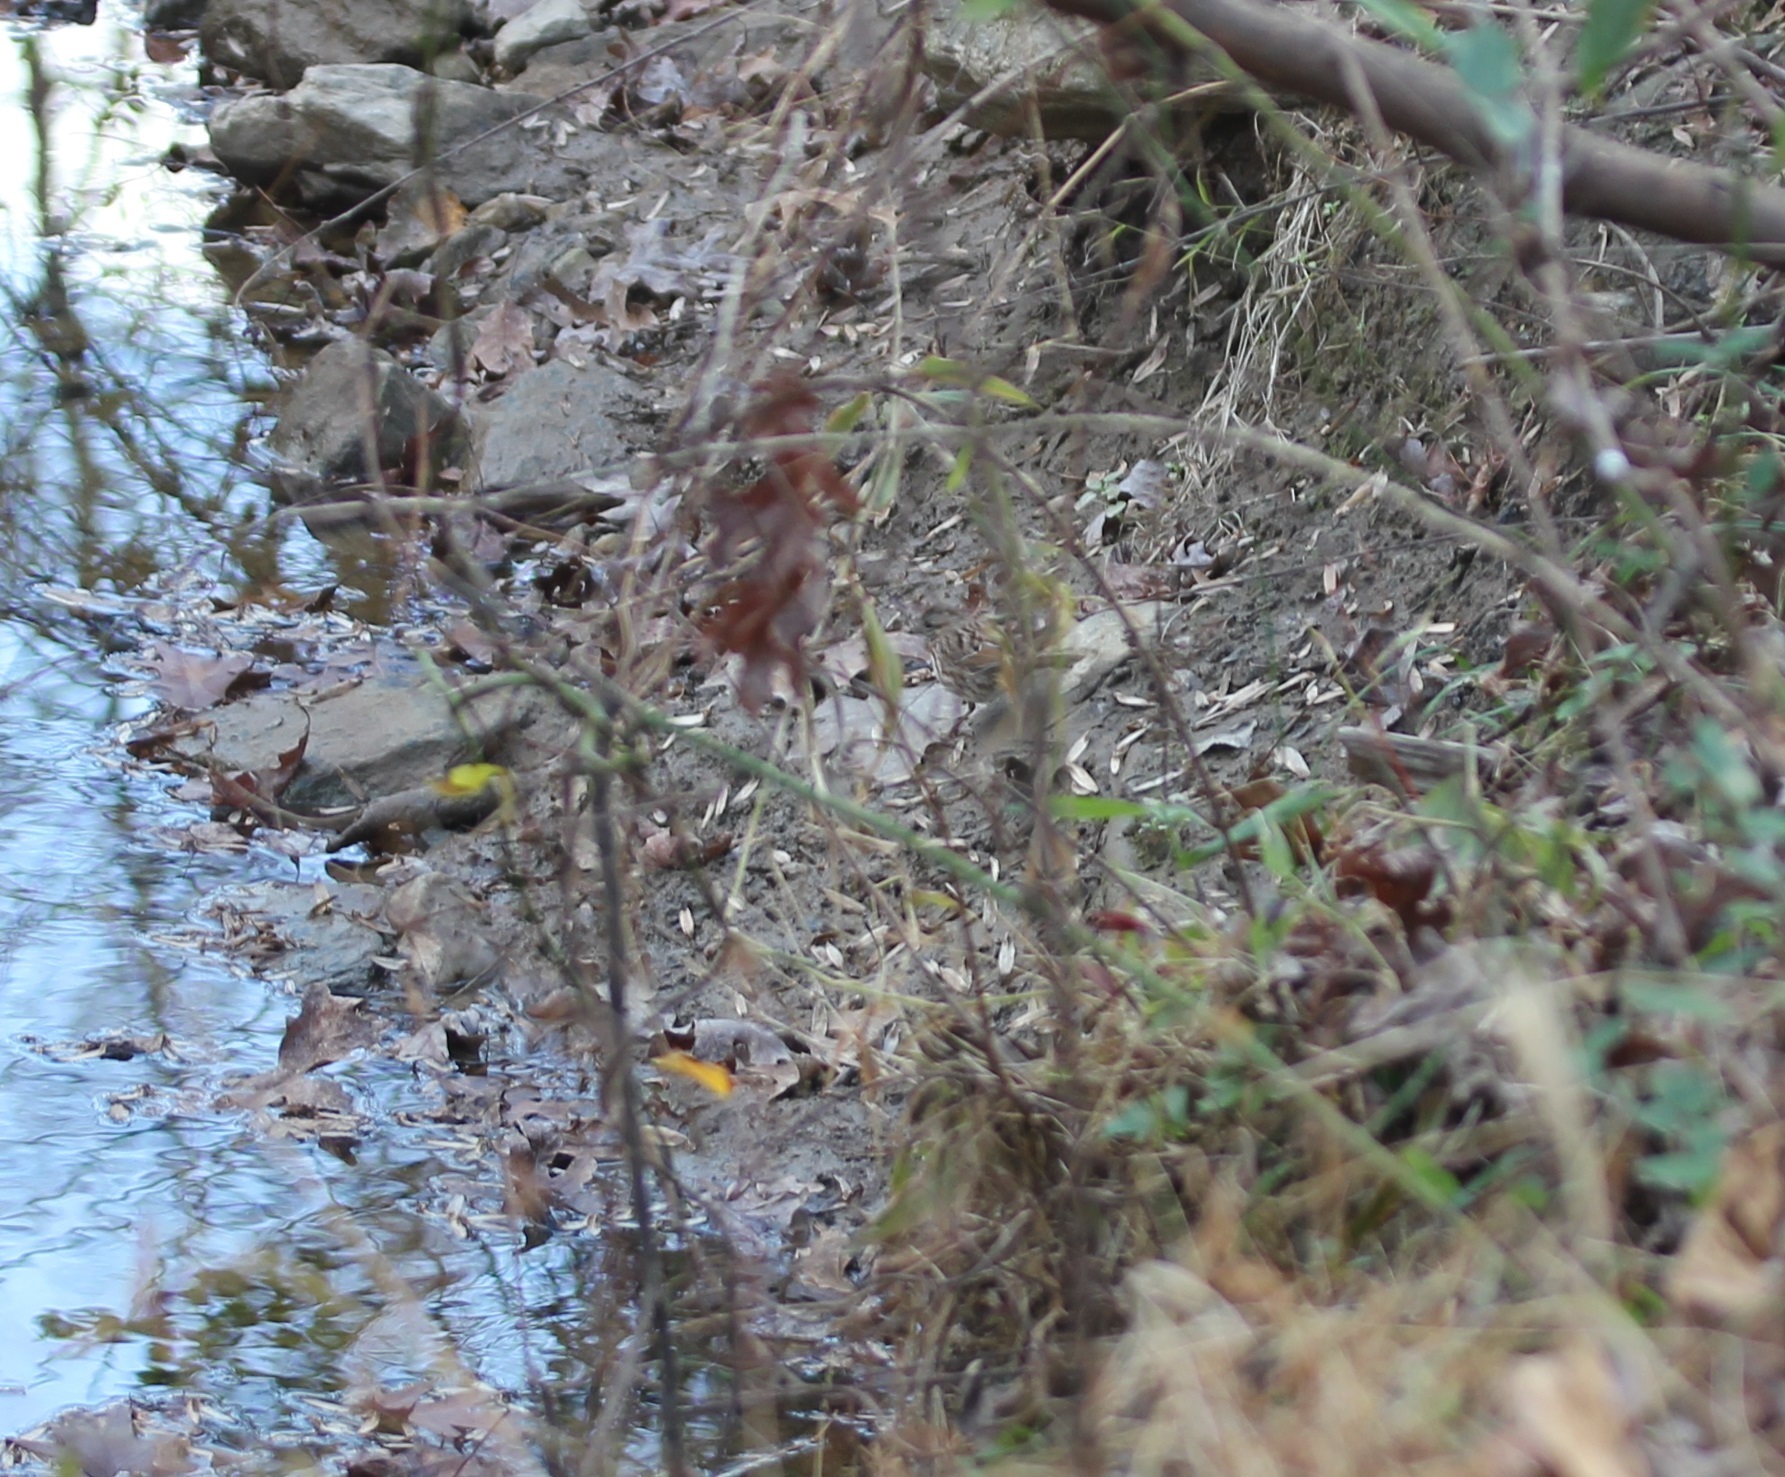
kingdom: Animalia
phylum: Chordata
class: Aves
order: Passeriformes
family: Passerellidae
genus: Melospiza
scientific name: Melospiza melodia
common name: Song sparrow
